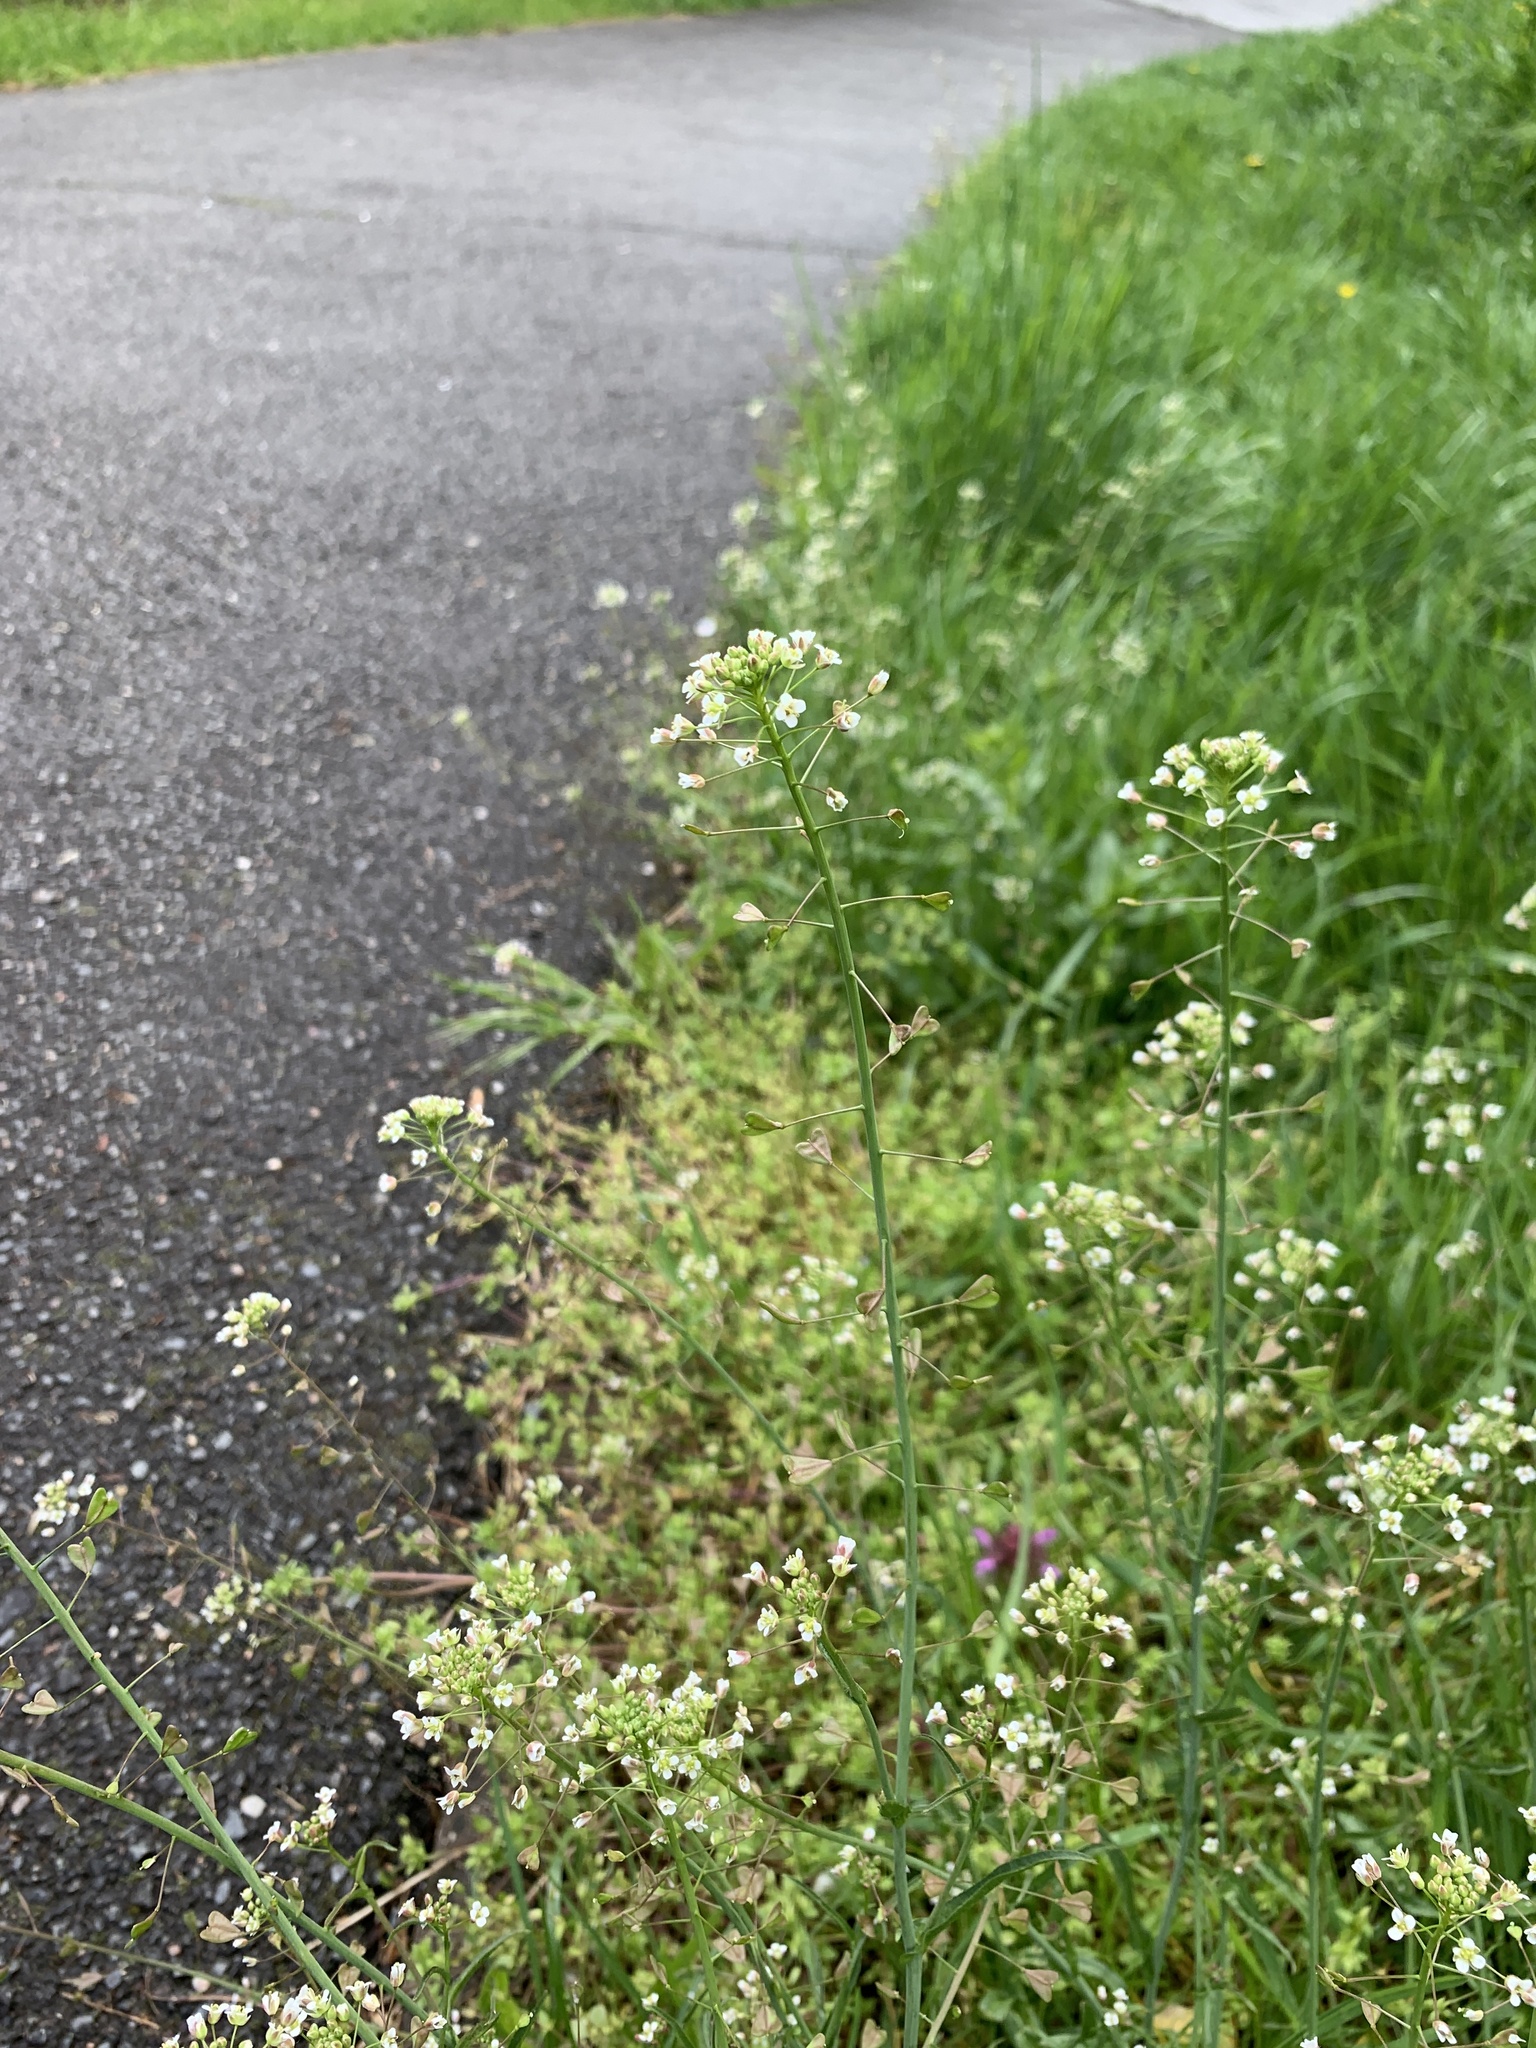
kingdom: Plantae
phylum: Tracheophyta
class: Magnoliopsida
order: Brassicales
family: Brassicaceae
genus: Capsella
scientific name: Capsella bursa-pastoris
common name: Shepherd's purse
